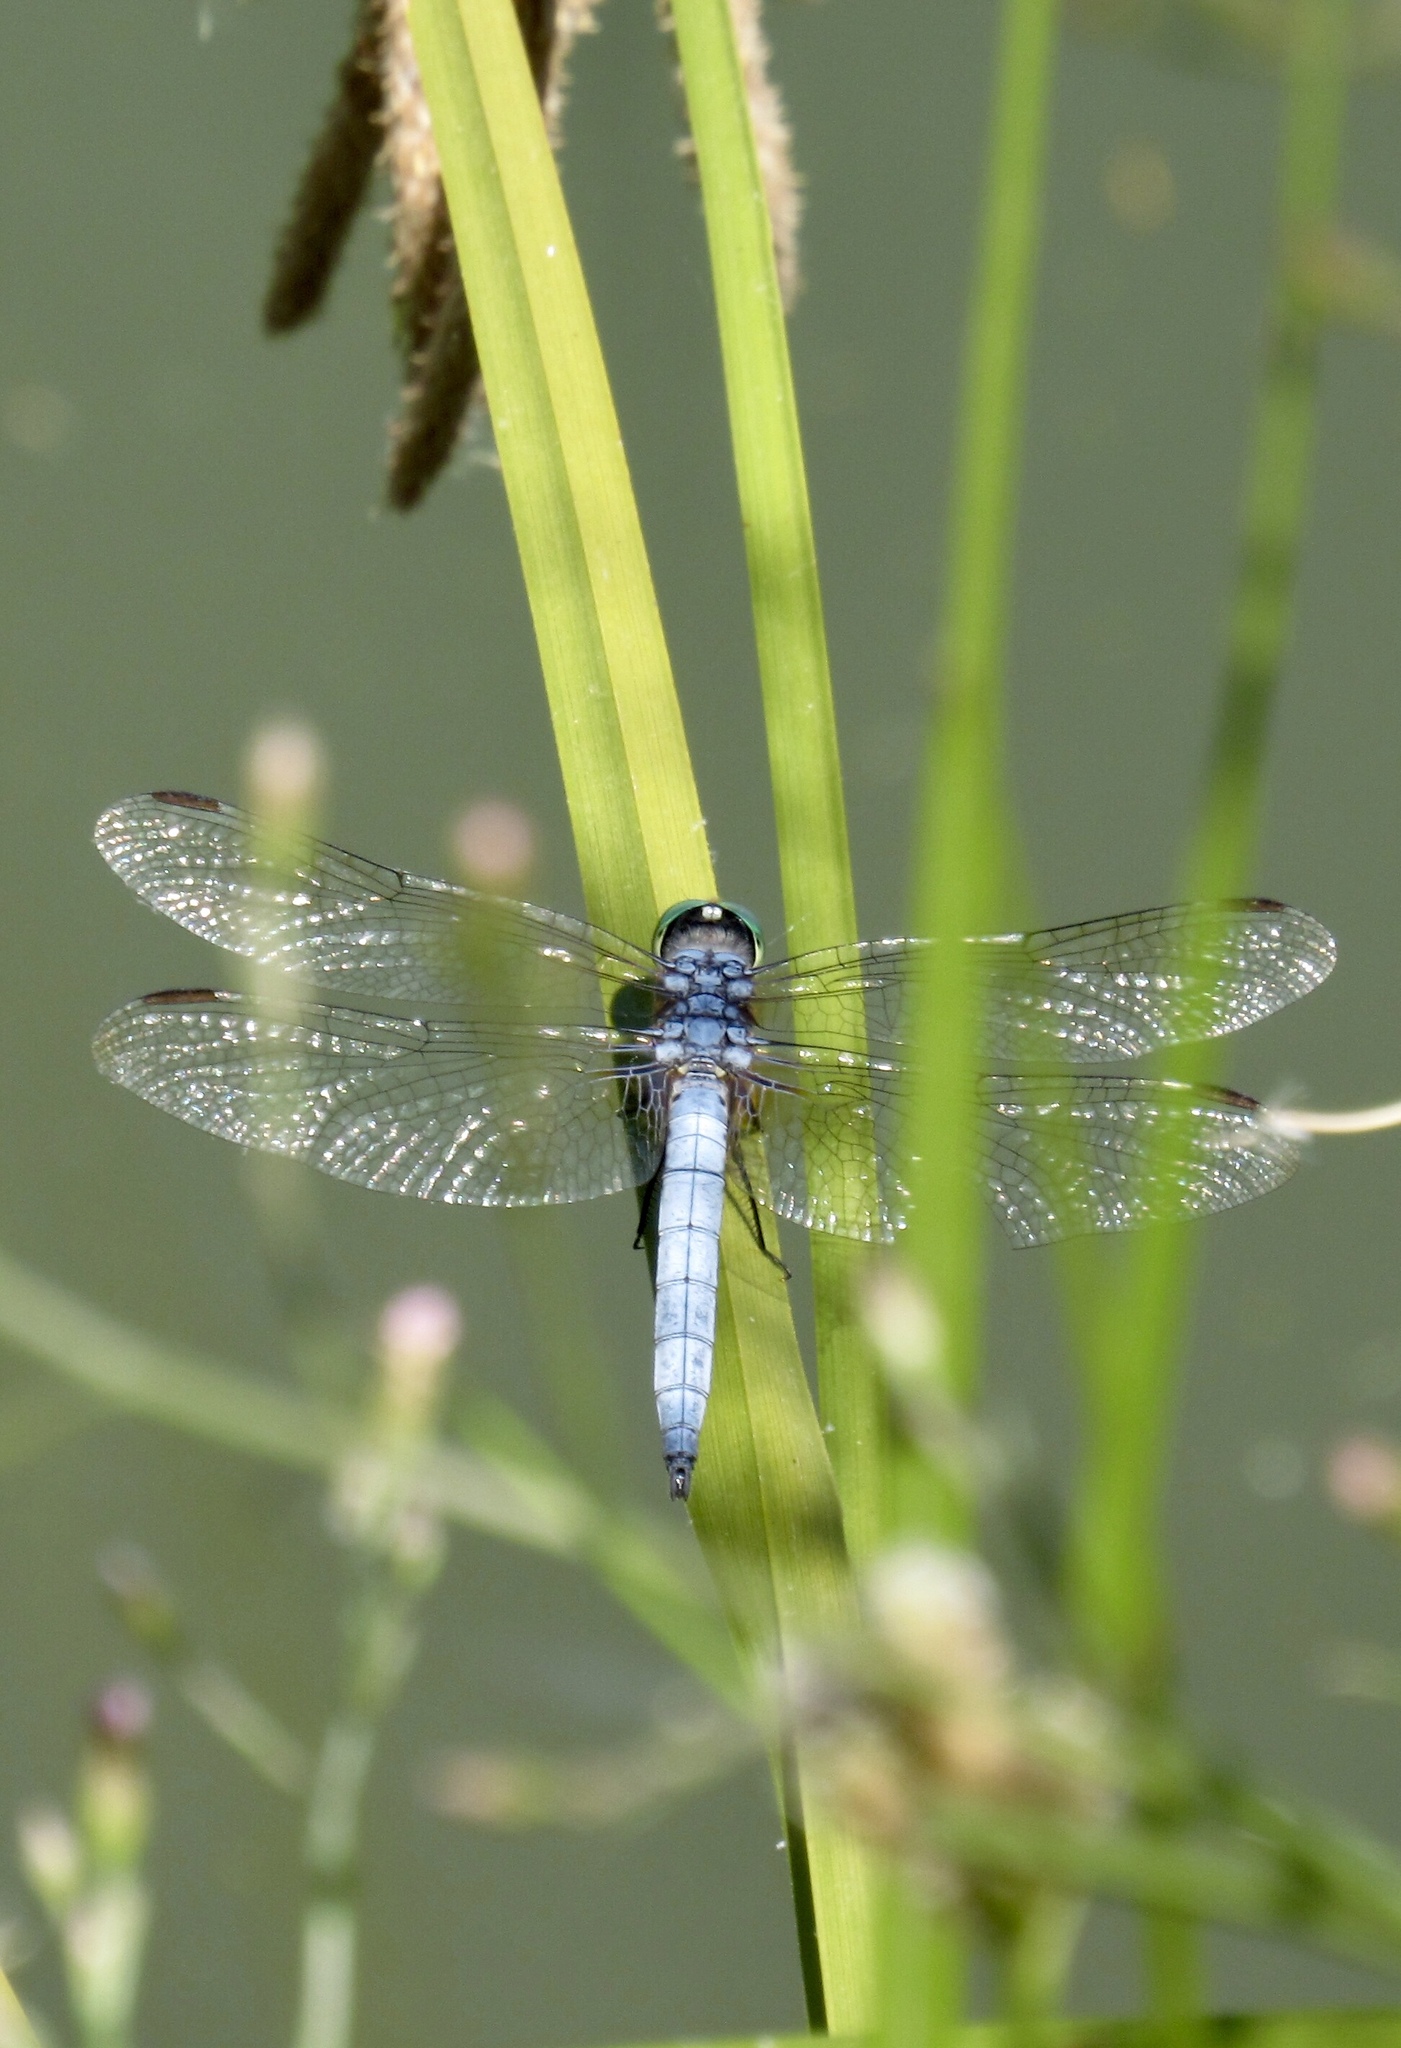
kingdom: Animalia
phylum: Arthropoda
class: Insecta
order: Odonata
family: Libellulidae
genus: Pachydiplax
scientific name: Pachydiplax longipennis
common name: Blue dasher
